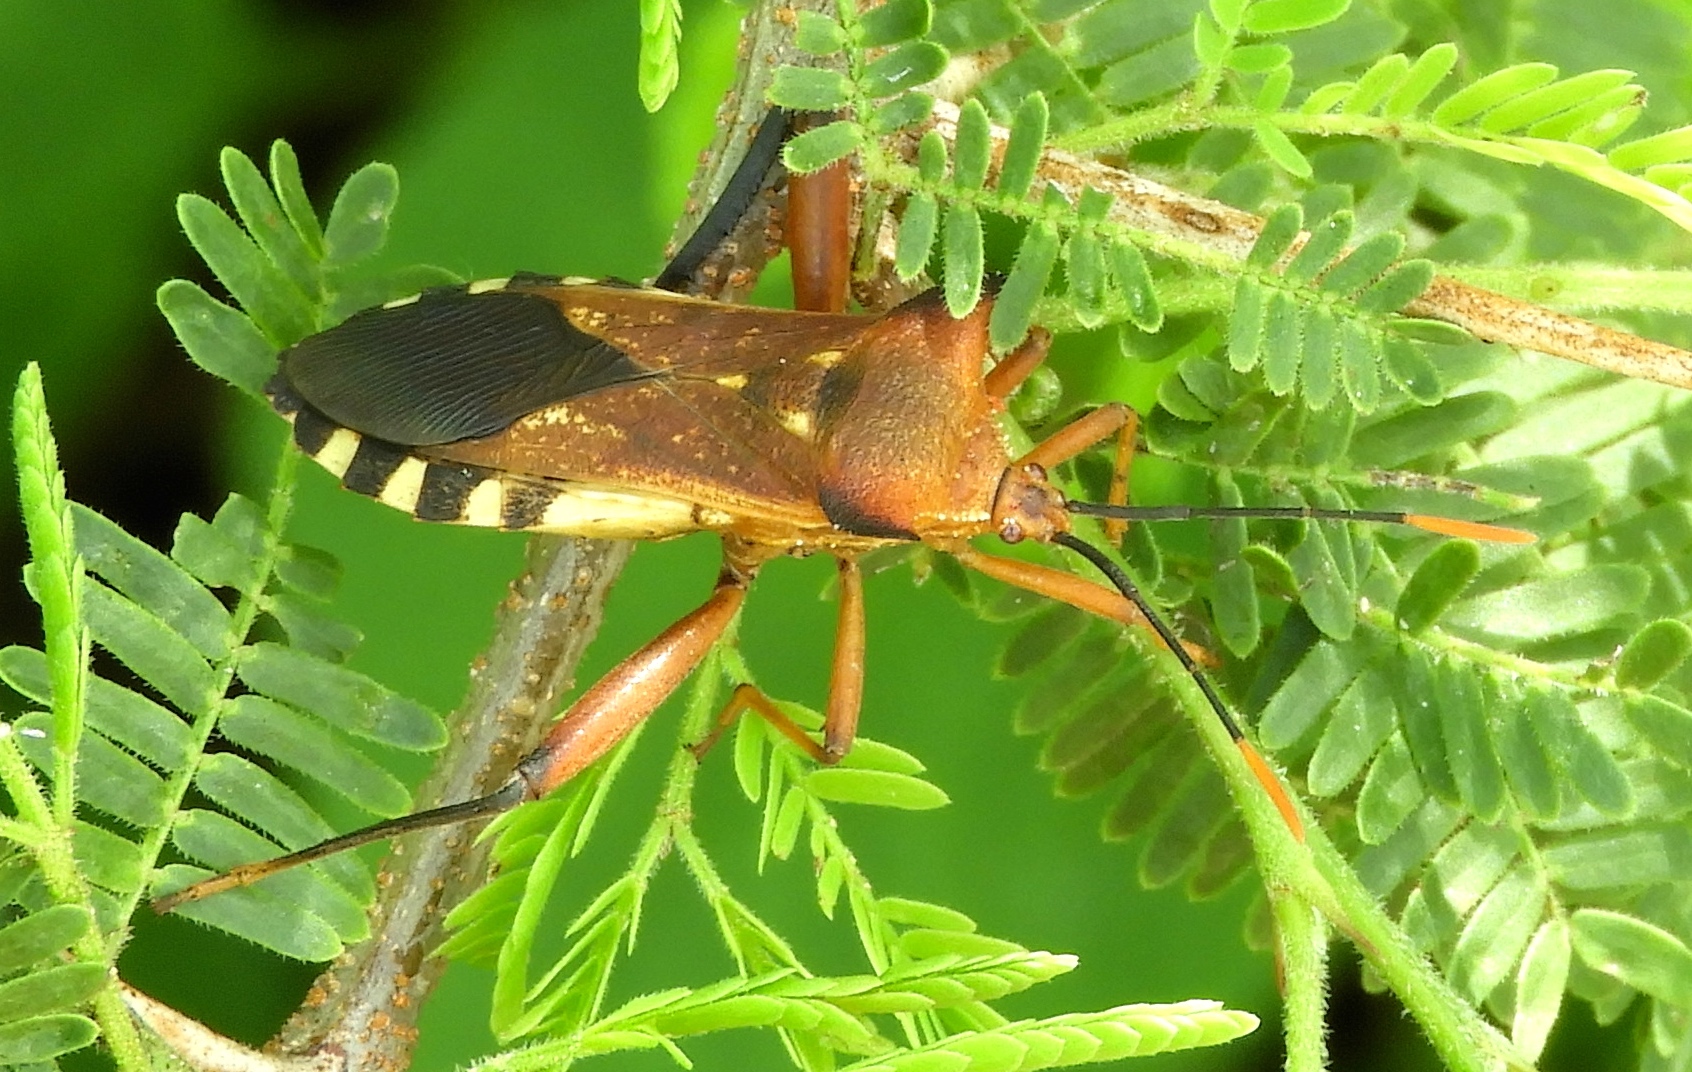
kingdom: Animalia
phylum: Arthropoda
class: Insecta
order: Hemiptera
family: Coreidae
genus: Mozena
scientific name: Mozena
